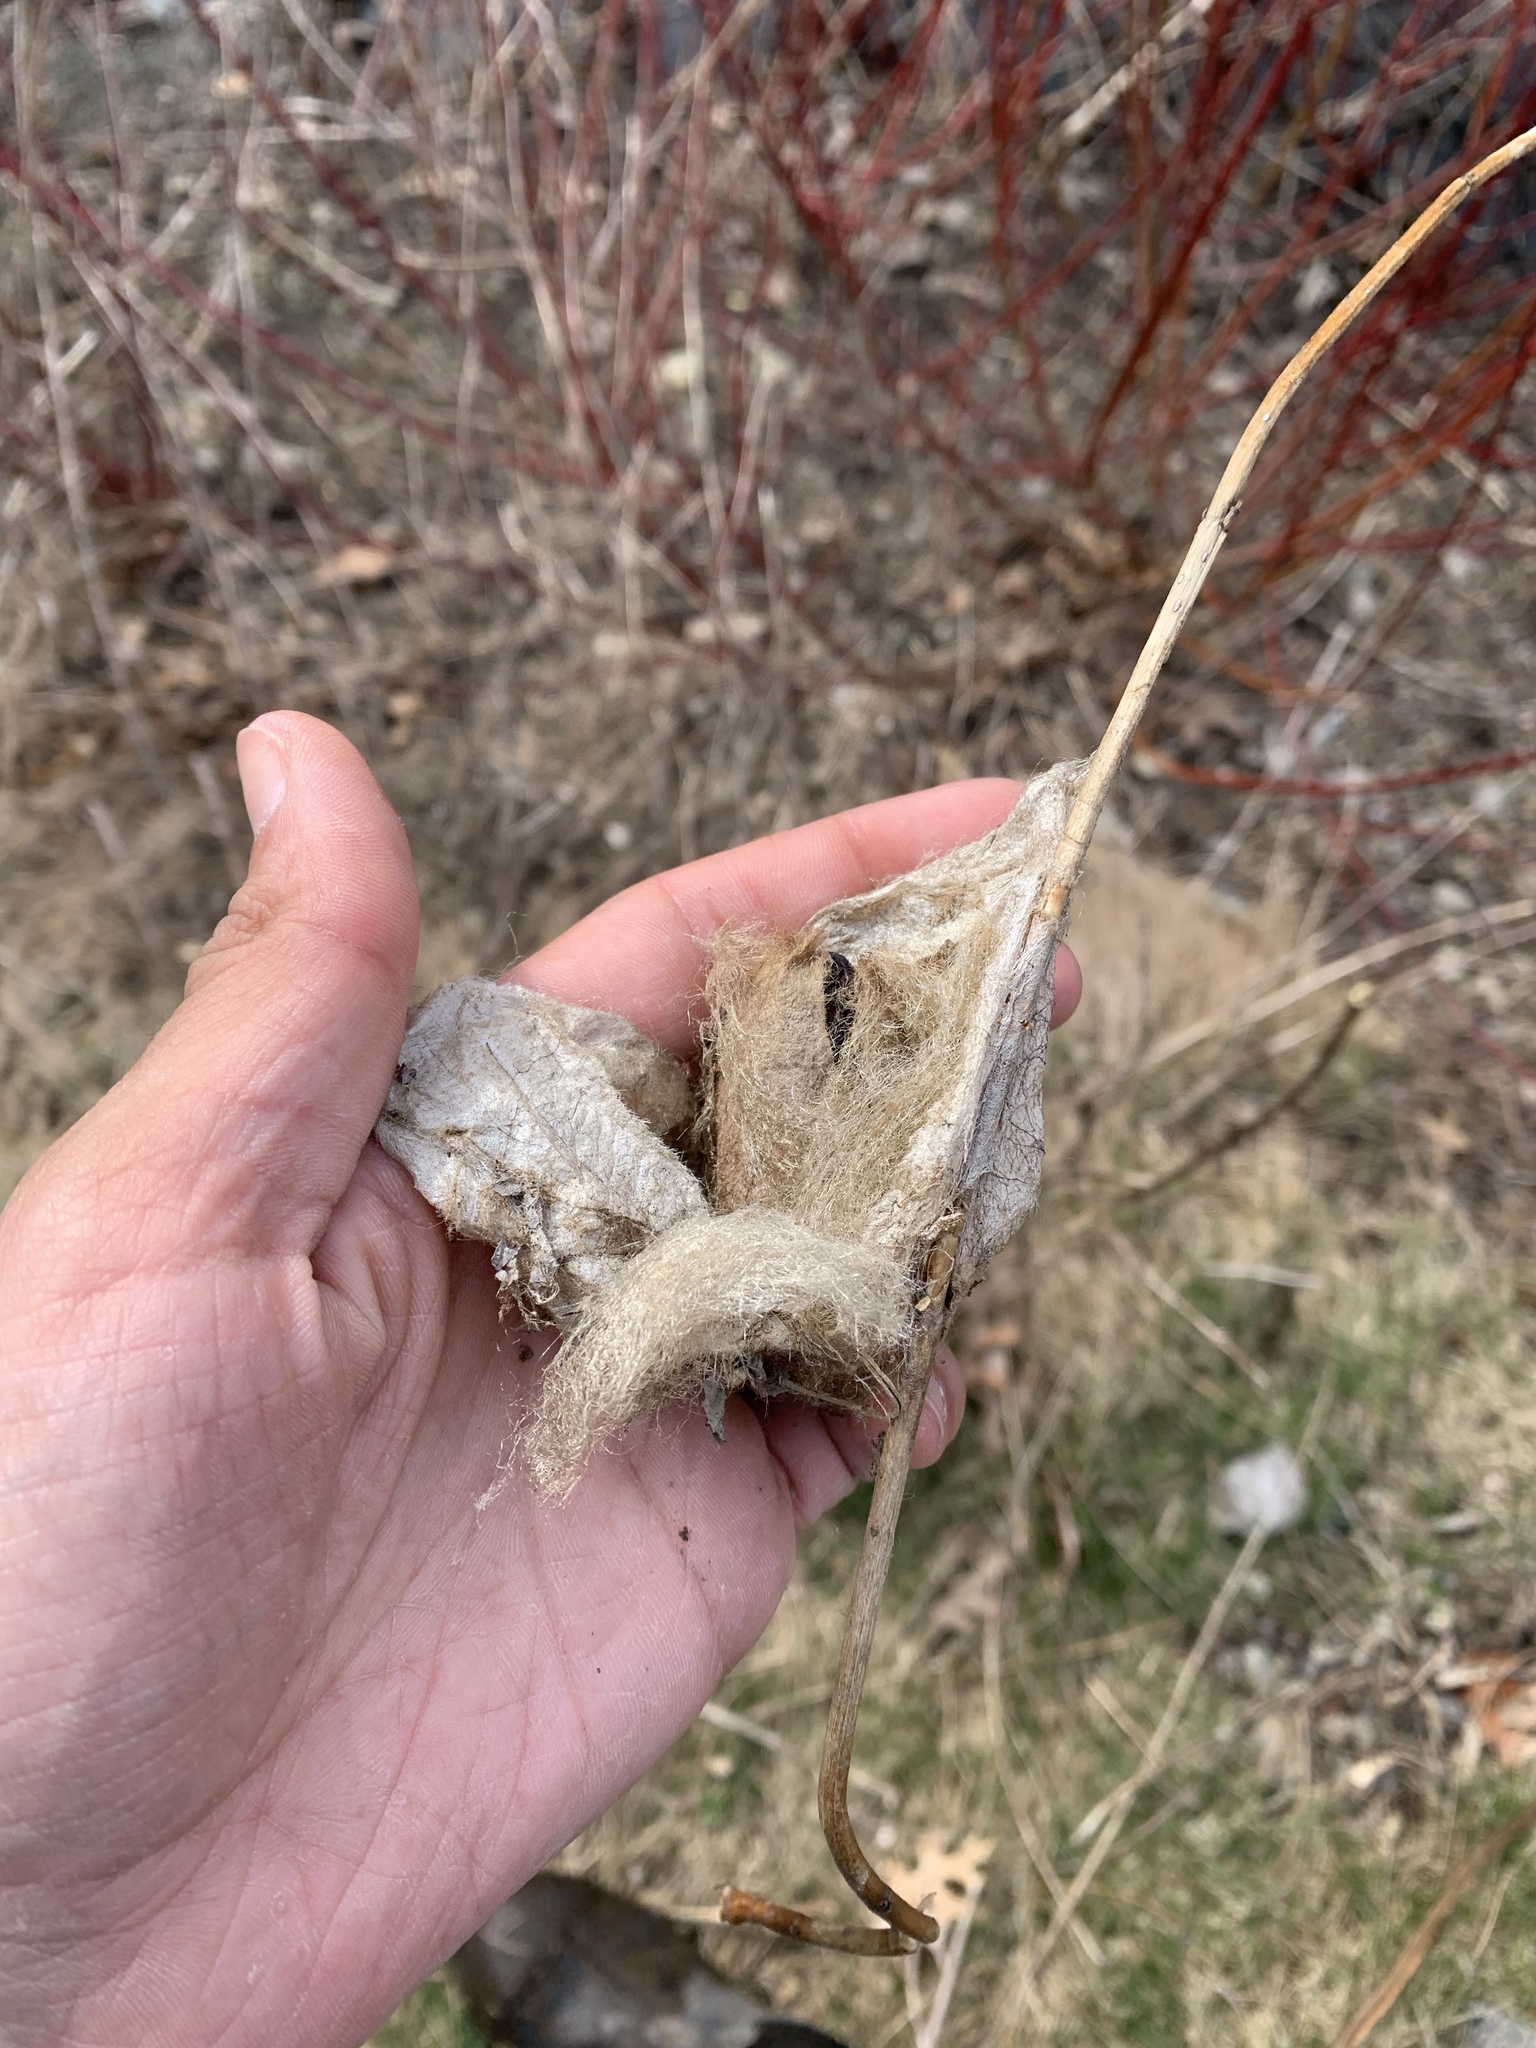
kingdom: Animalia
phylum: Arthropoda
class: Insecta
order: Lepidoptera
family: Saturniidae
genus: Hyalophora
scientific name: Hyalophora cecropia
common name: Cecropia silkmoth
